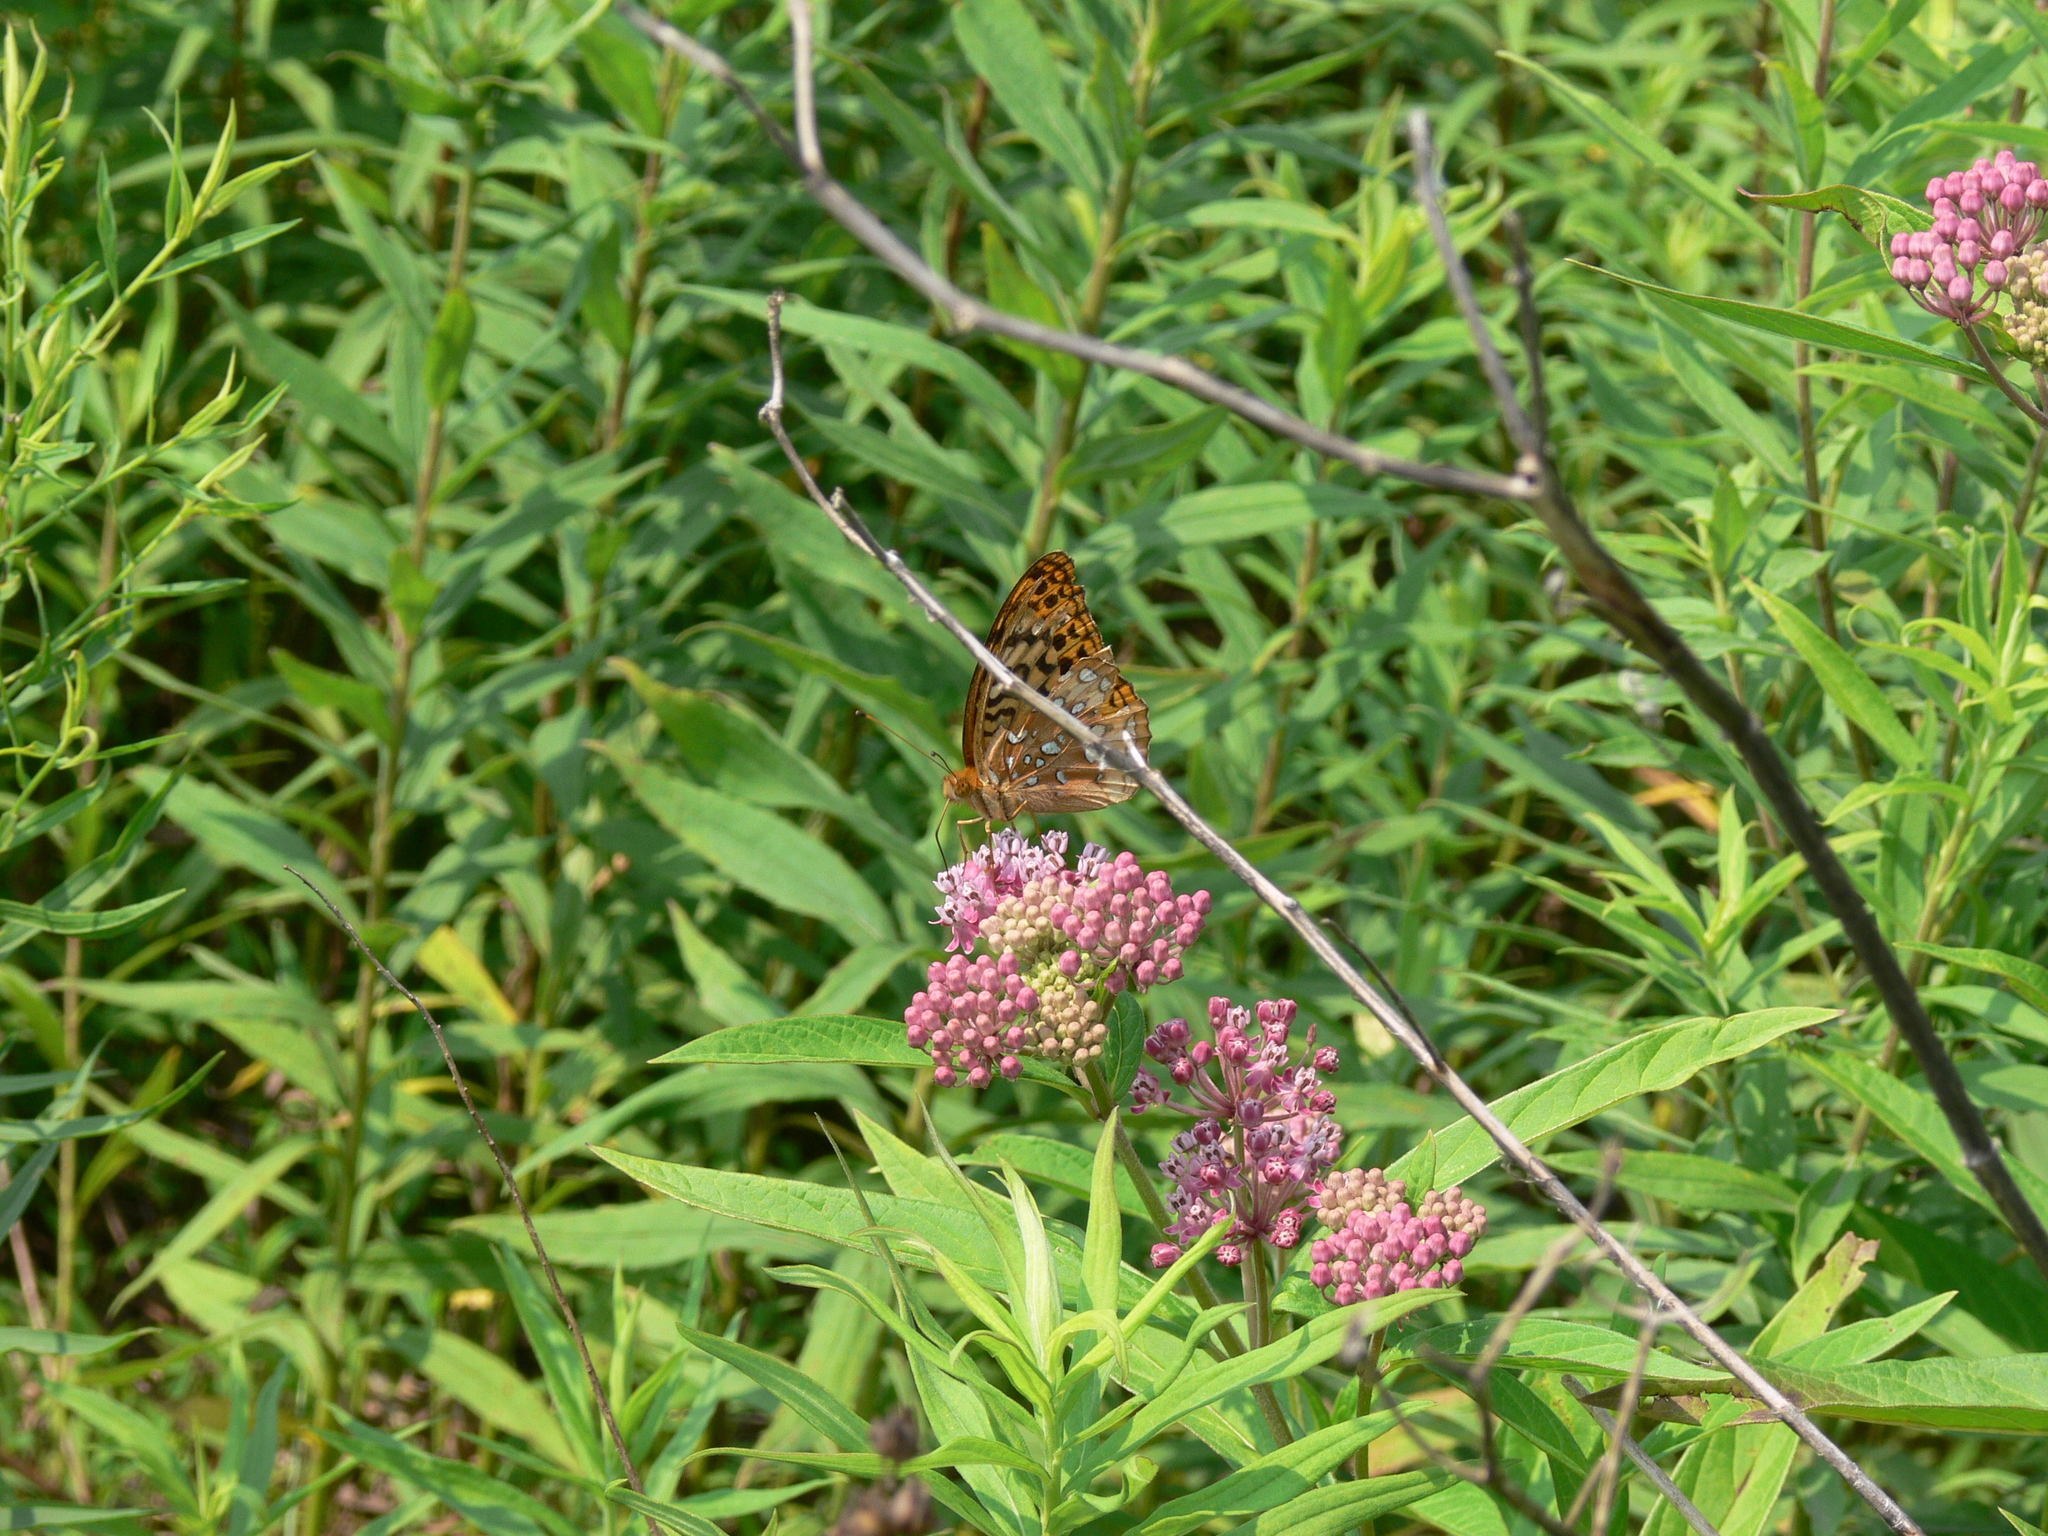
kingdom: Animalia
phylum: Arthropoda
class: Insecta
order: Lepidoptera
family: Nymphalidae
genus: Speyeria
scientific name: Speyeria cybele
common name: Great spangled fritillary
